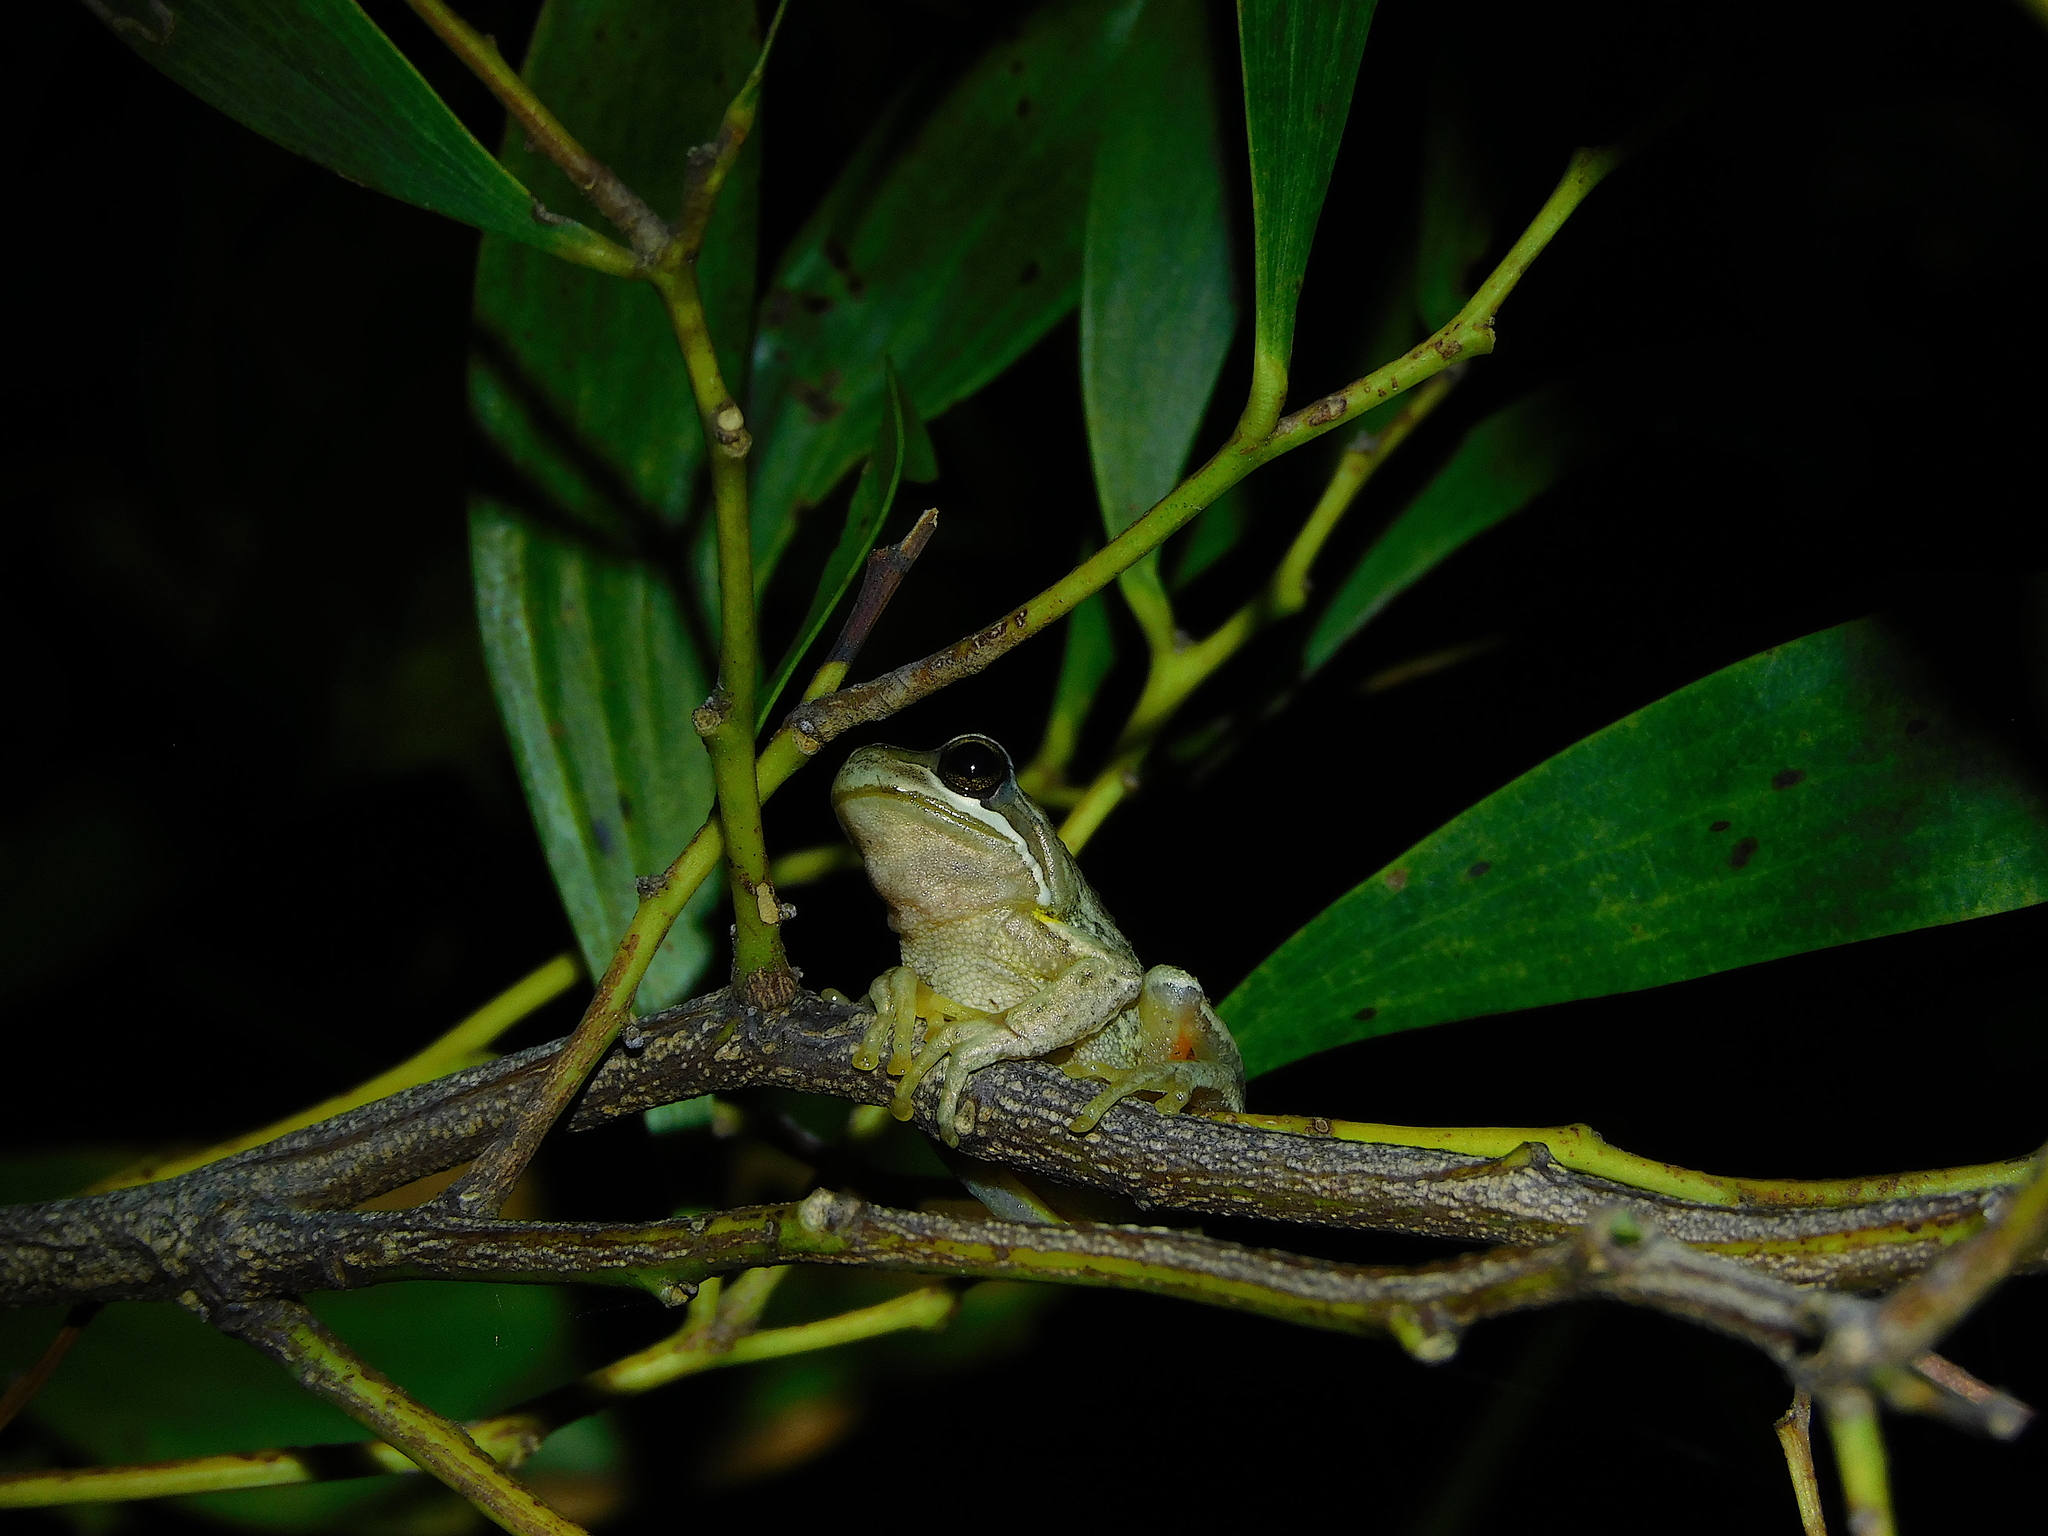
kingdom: Animalia
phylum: Chordata
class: Amphibia
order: Anura
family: Pelodryadidae
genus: Litoria
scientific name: Litoria ewingii
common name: Southern brown tree frog
